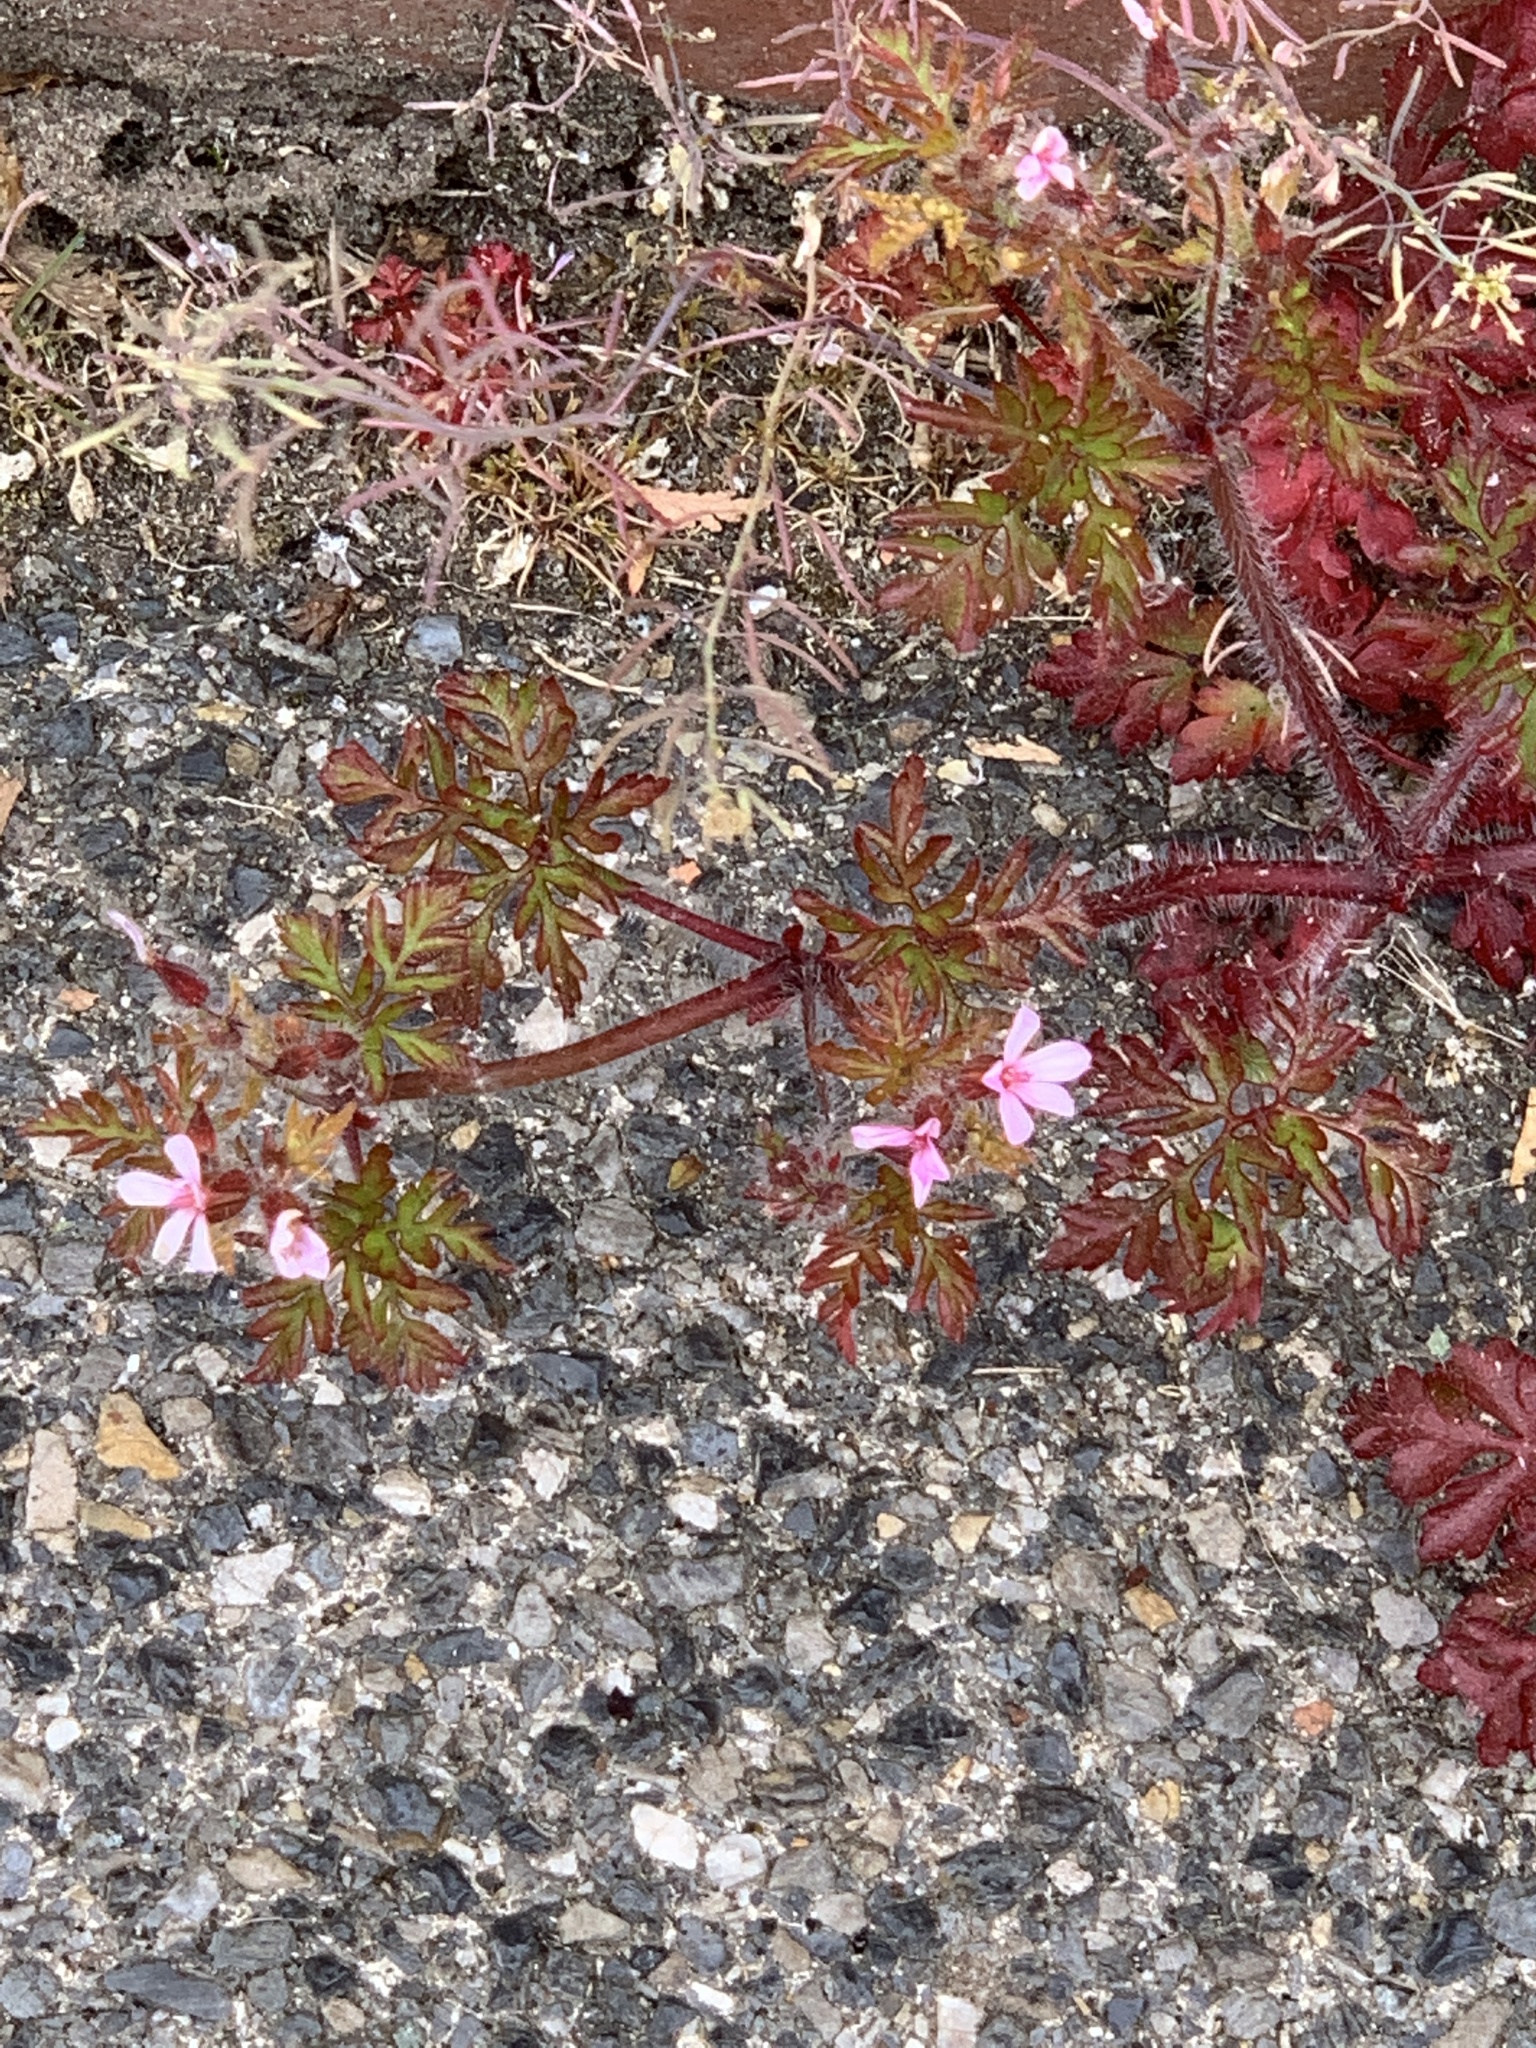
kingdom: Plantae
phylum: Tracheophyta
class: Magnoliopsida
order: Geraniales
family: Geraniaceae
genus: Geranium
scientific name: Geranium robertianum
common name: Herb-robert
